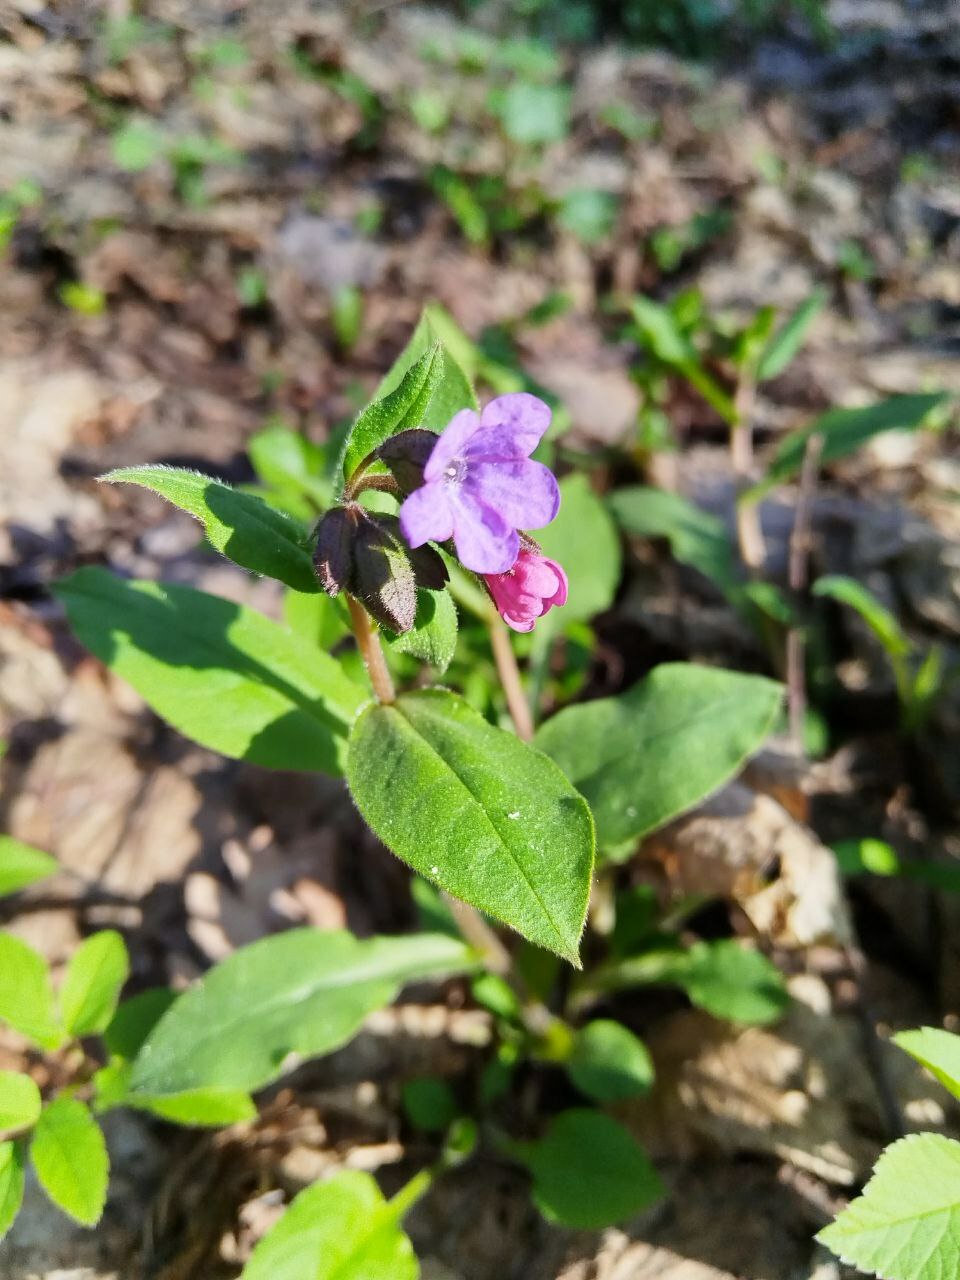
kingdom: Plantae
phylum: Tracheophyta
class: Magnoliopsida
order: Boraginales
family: Boraginaceae
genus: Pulmonaria
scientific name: Pulmonaria obscura
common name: Suffolk lungwort
